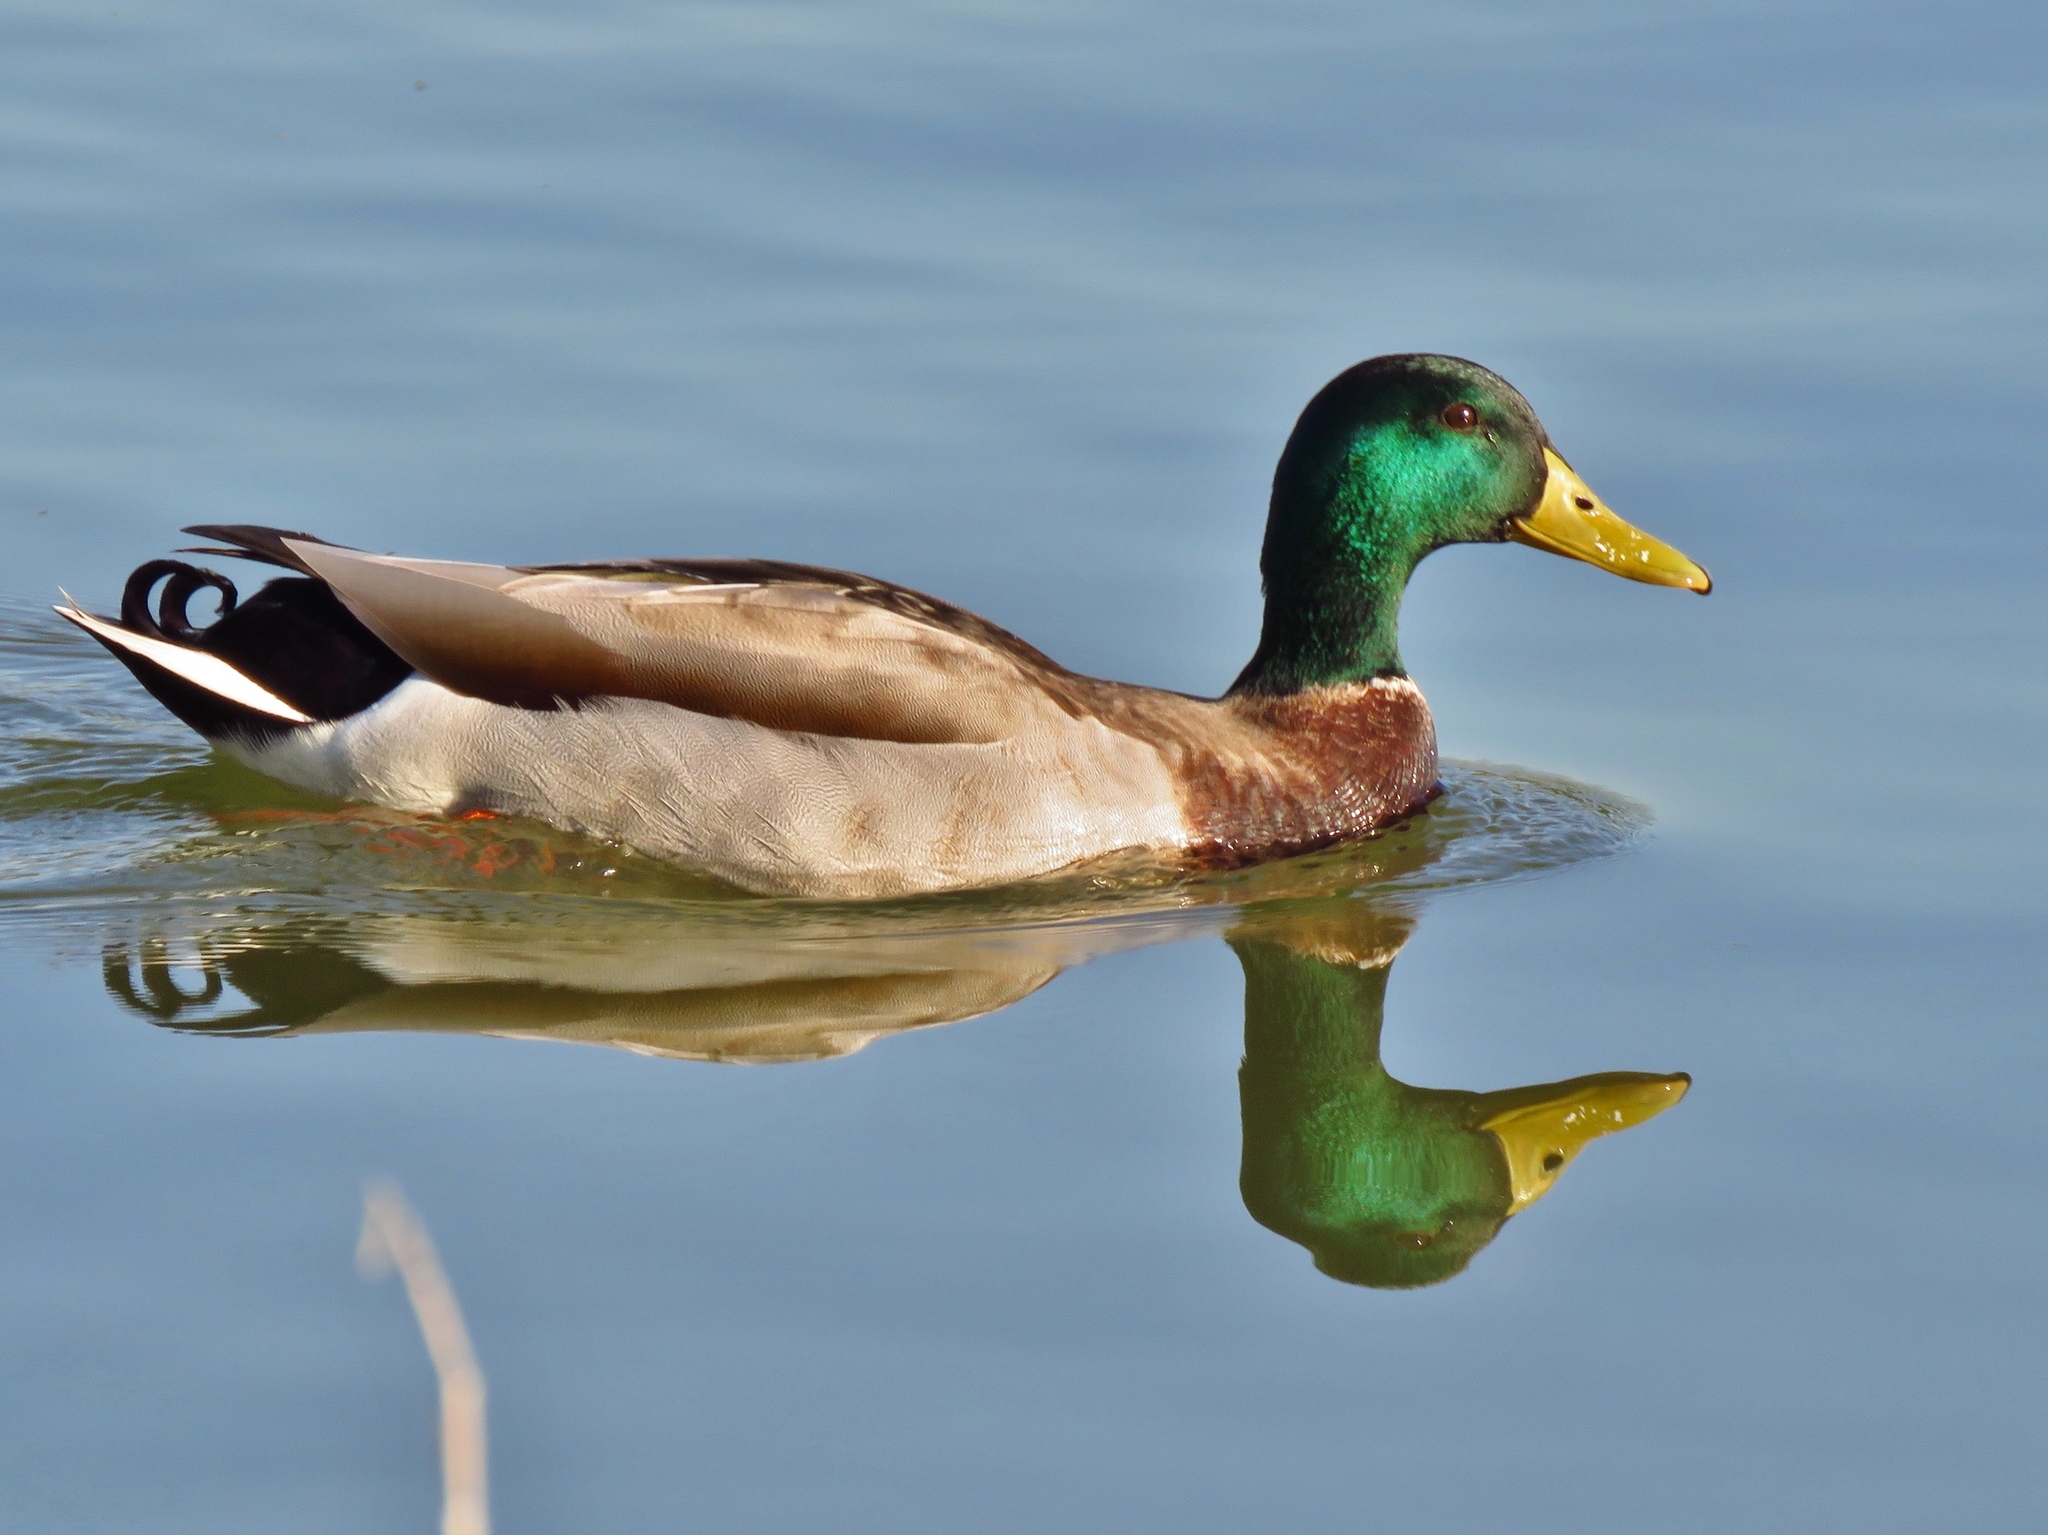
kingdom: Animalia
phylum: Chordata
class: Aves
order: Anseriformes
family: Anatidae
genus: Anas
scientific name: Anas platyrhynchos
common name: Mallard
